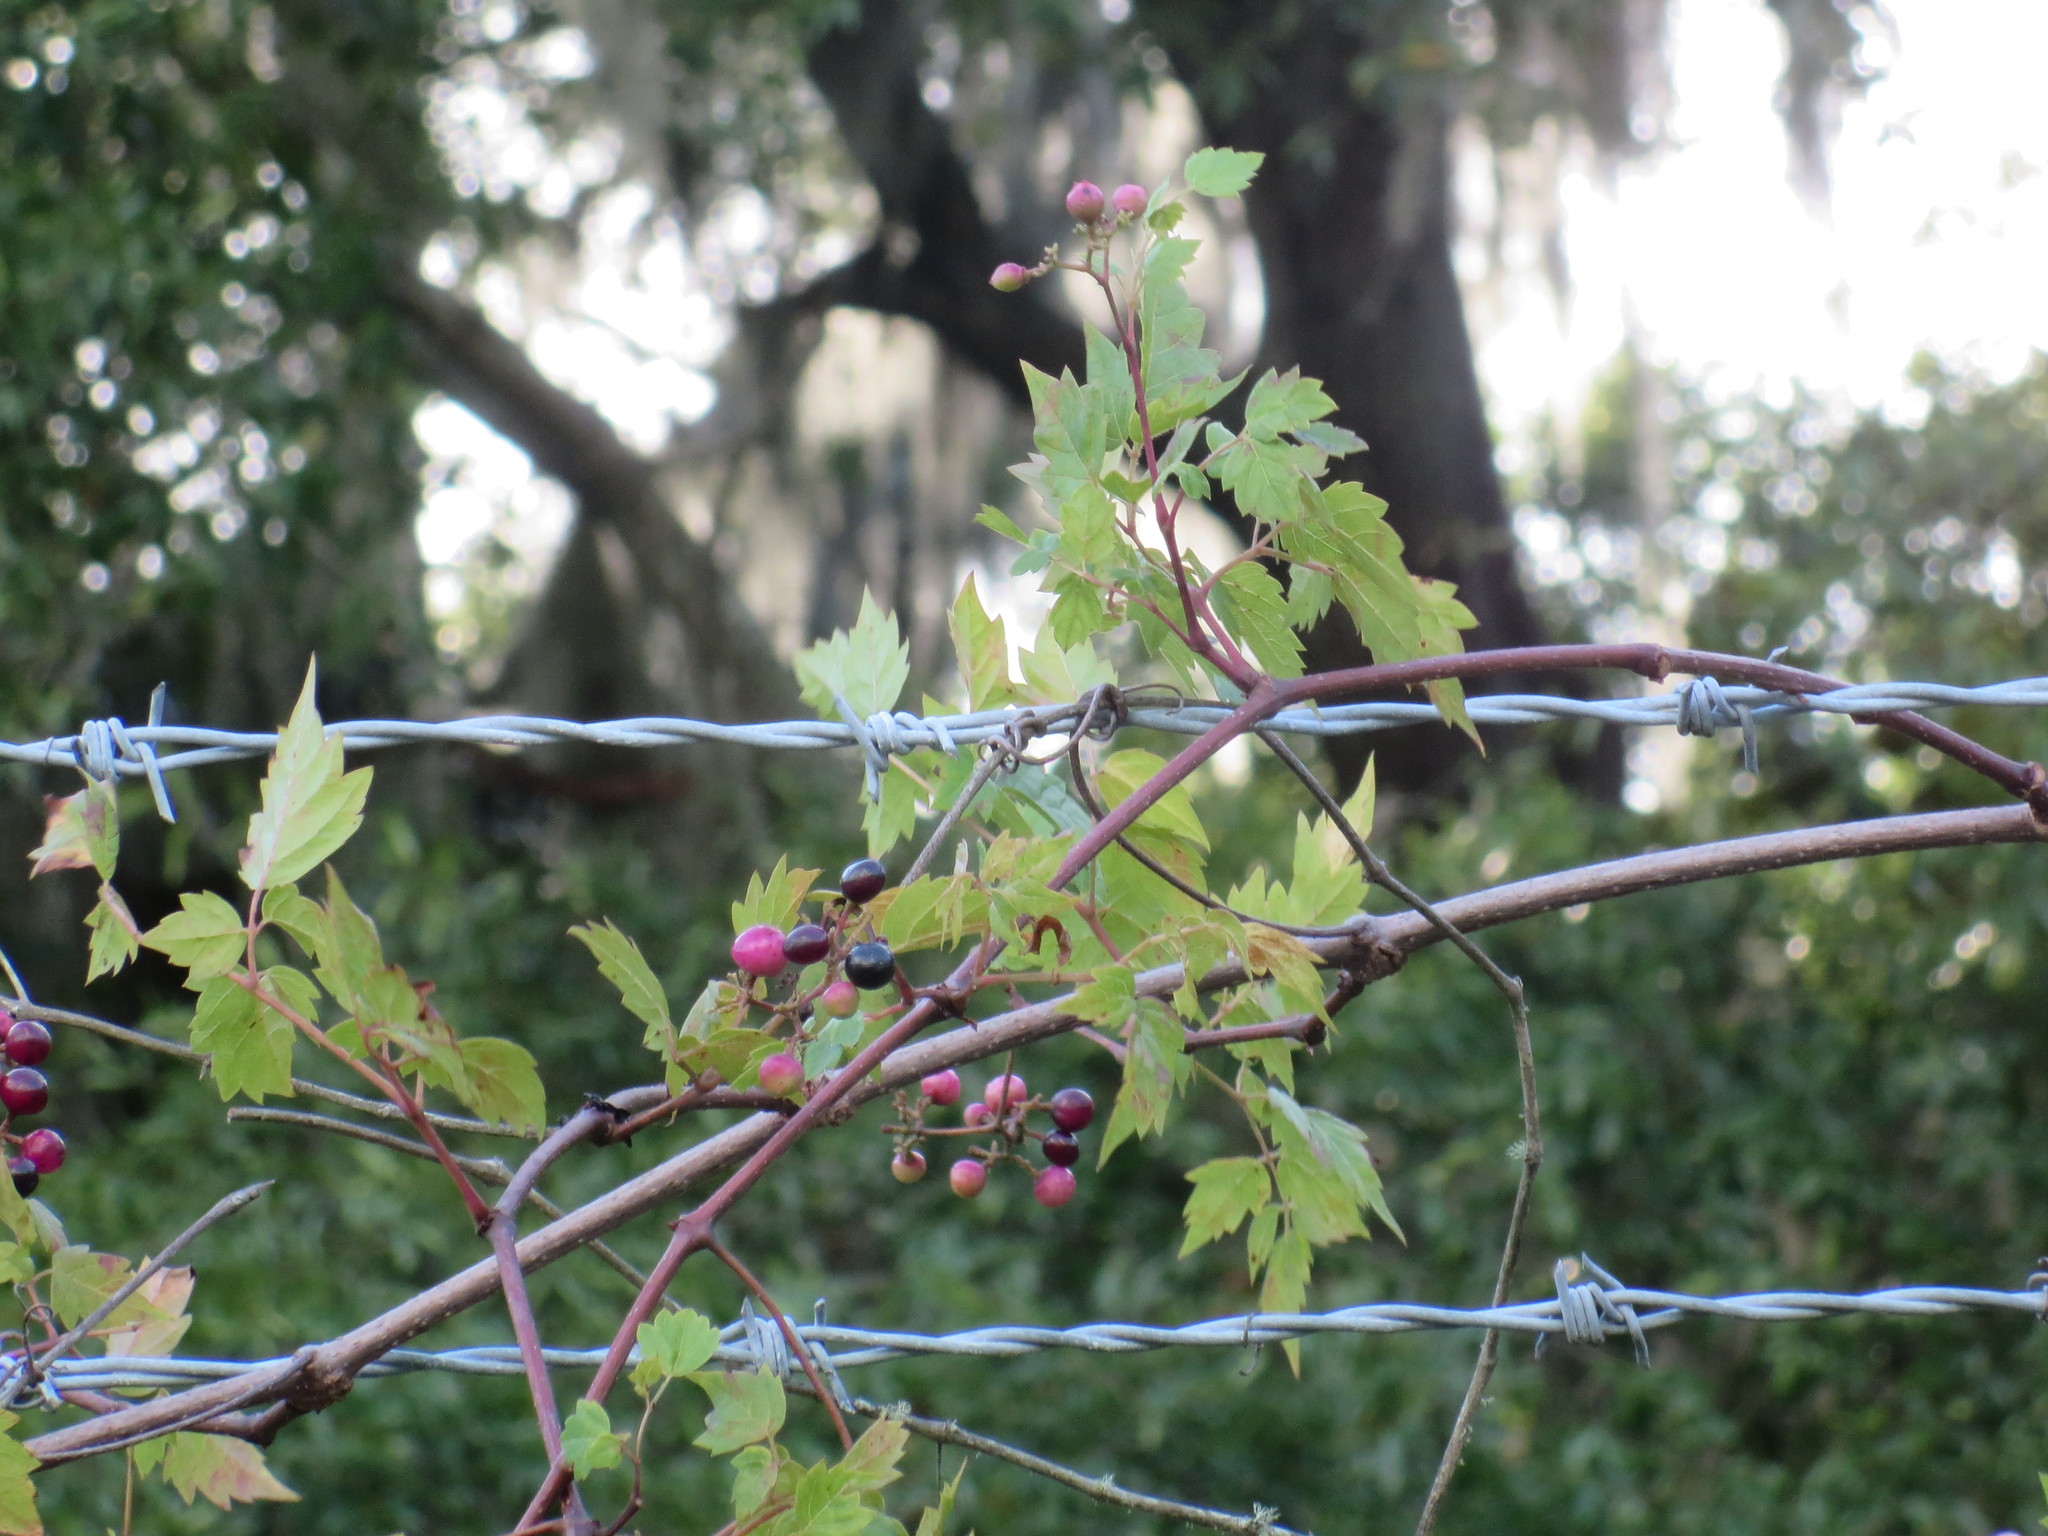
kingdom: Plantae
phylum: Tracheophyta
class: Magnoliopsida
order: Vitales
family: Vitaceae
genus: Nekemias
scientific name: Nekemias arborea
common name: Peppervine
